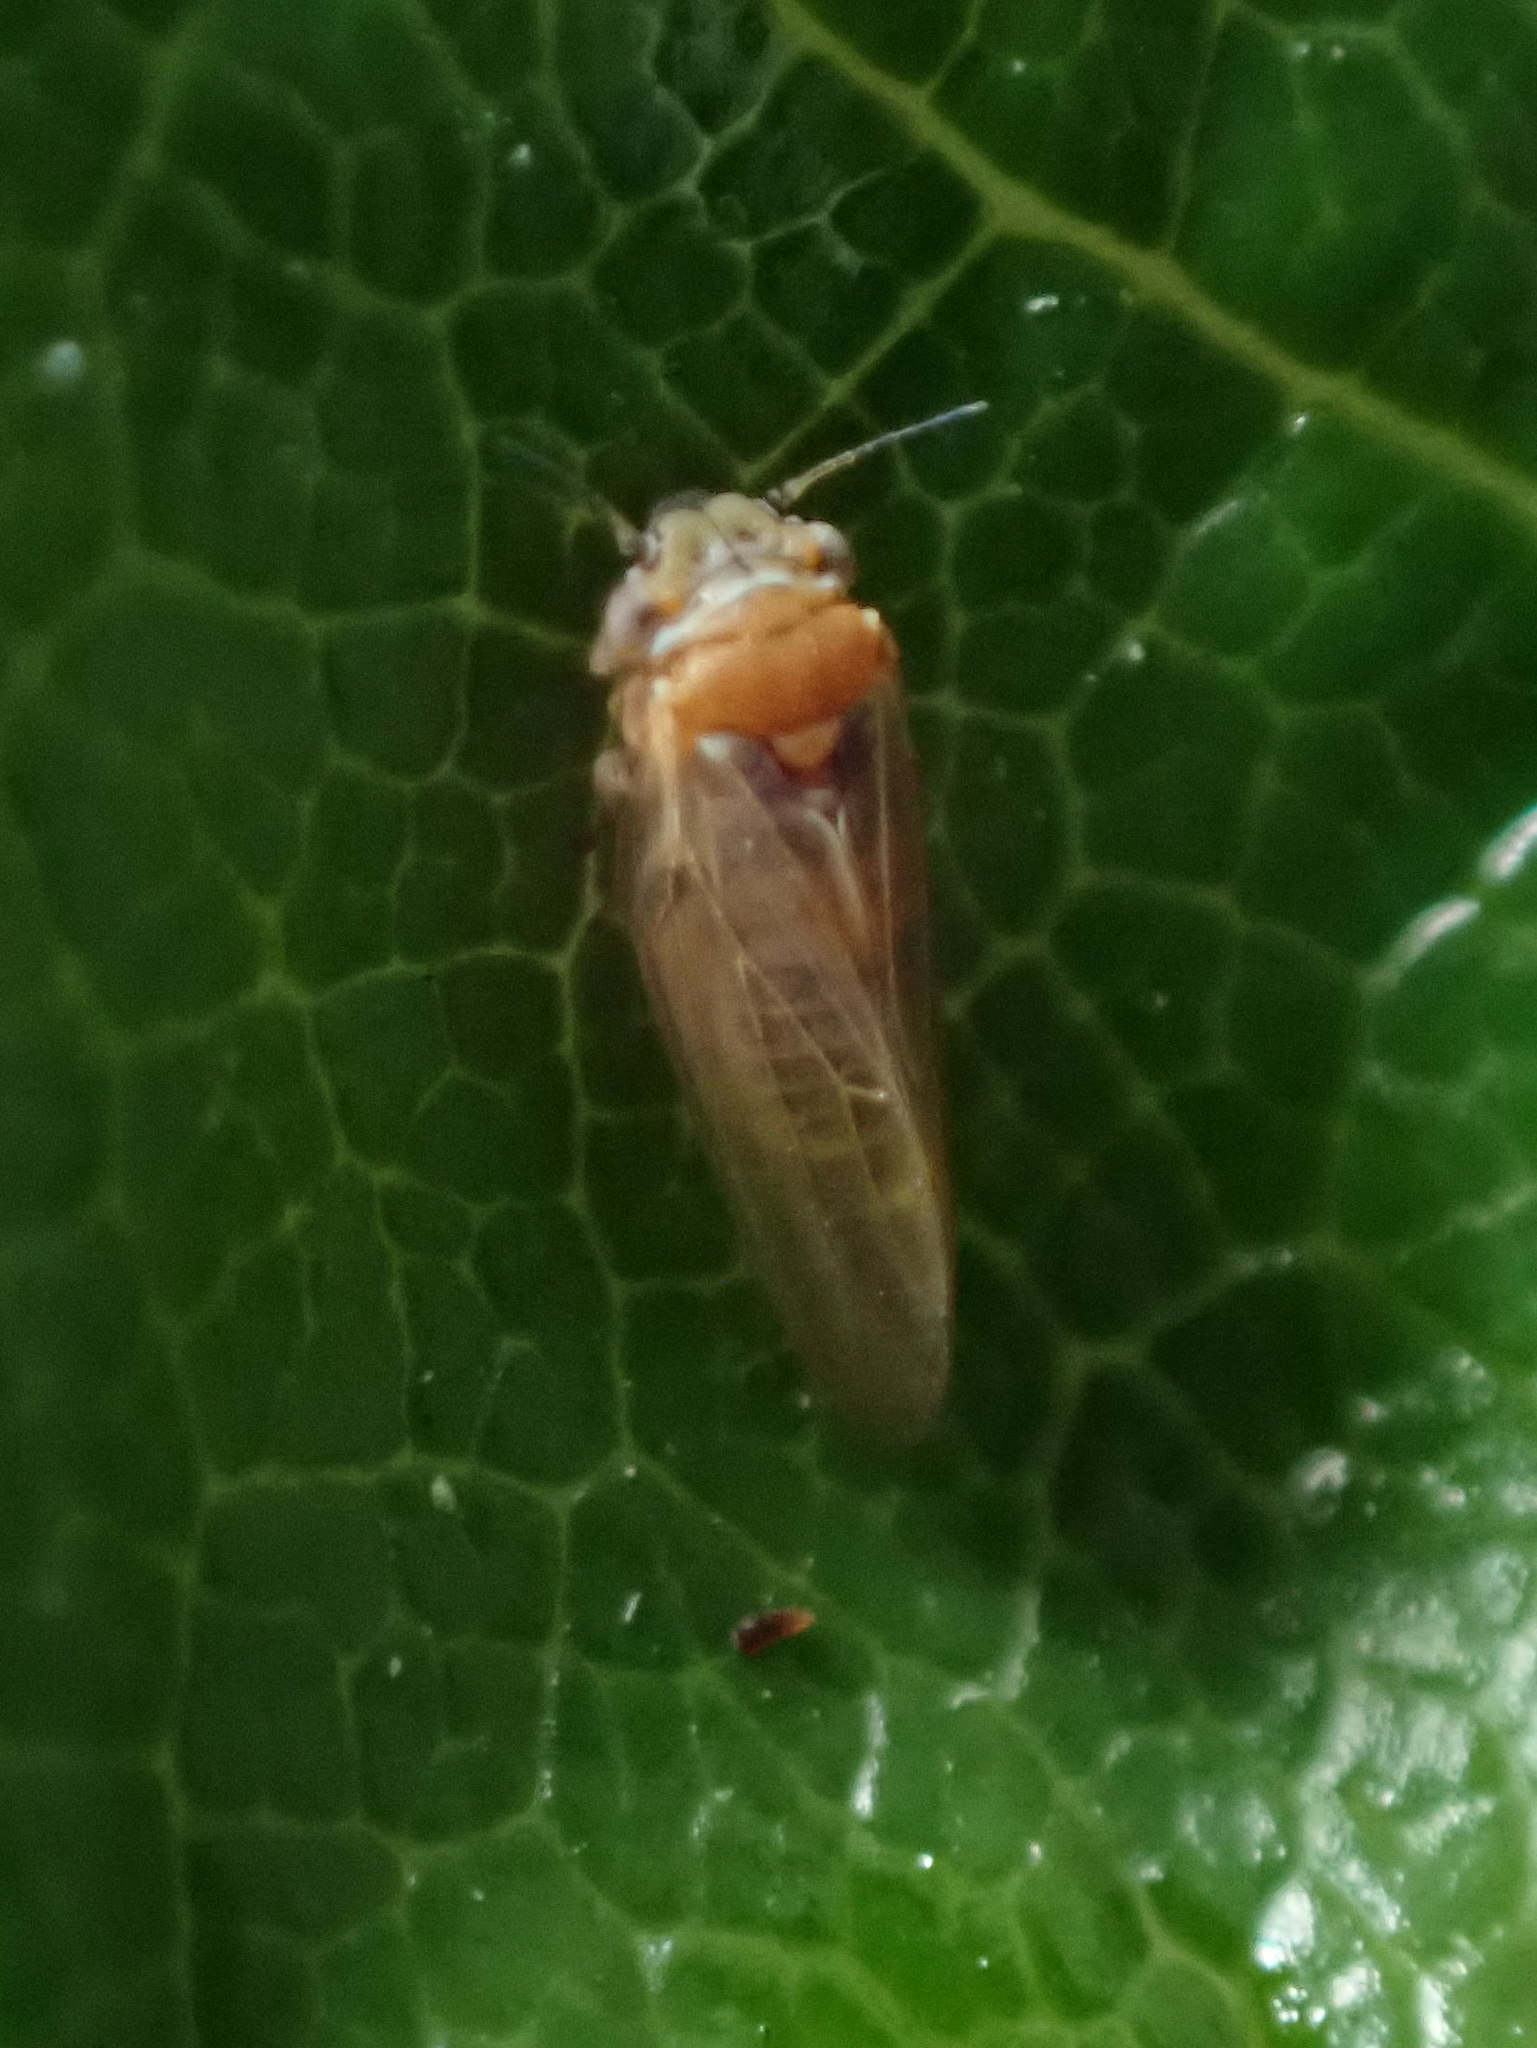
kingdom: Animalia
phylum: Arthropoda
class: Insecta
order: Hemiptera
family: Aphalaridae
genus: Ctenarytaina
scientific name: Ctenarytaina spatulata
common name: Rose gum psillid
